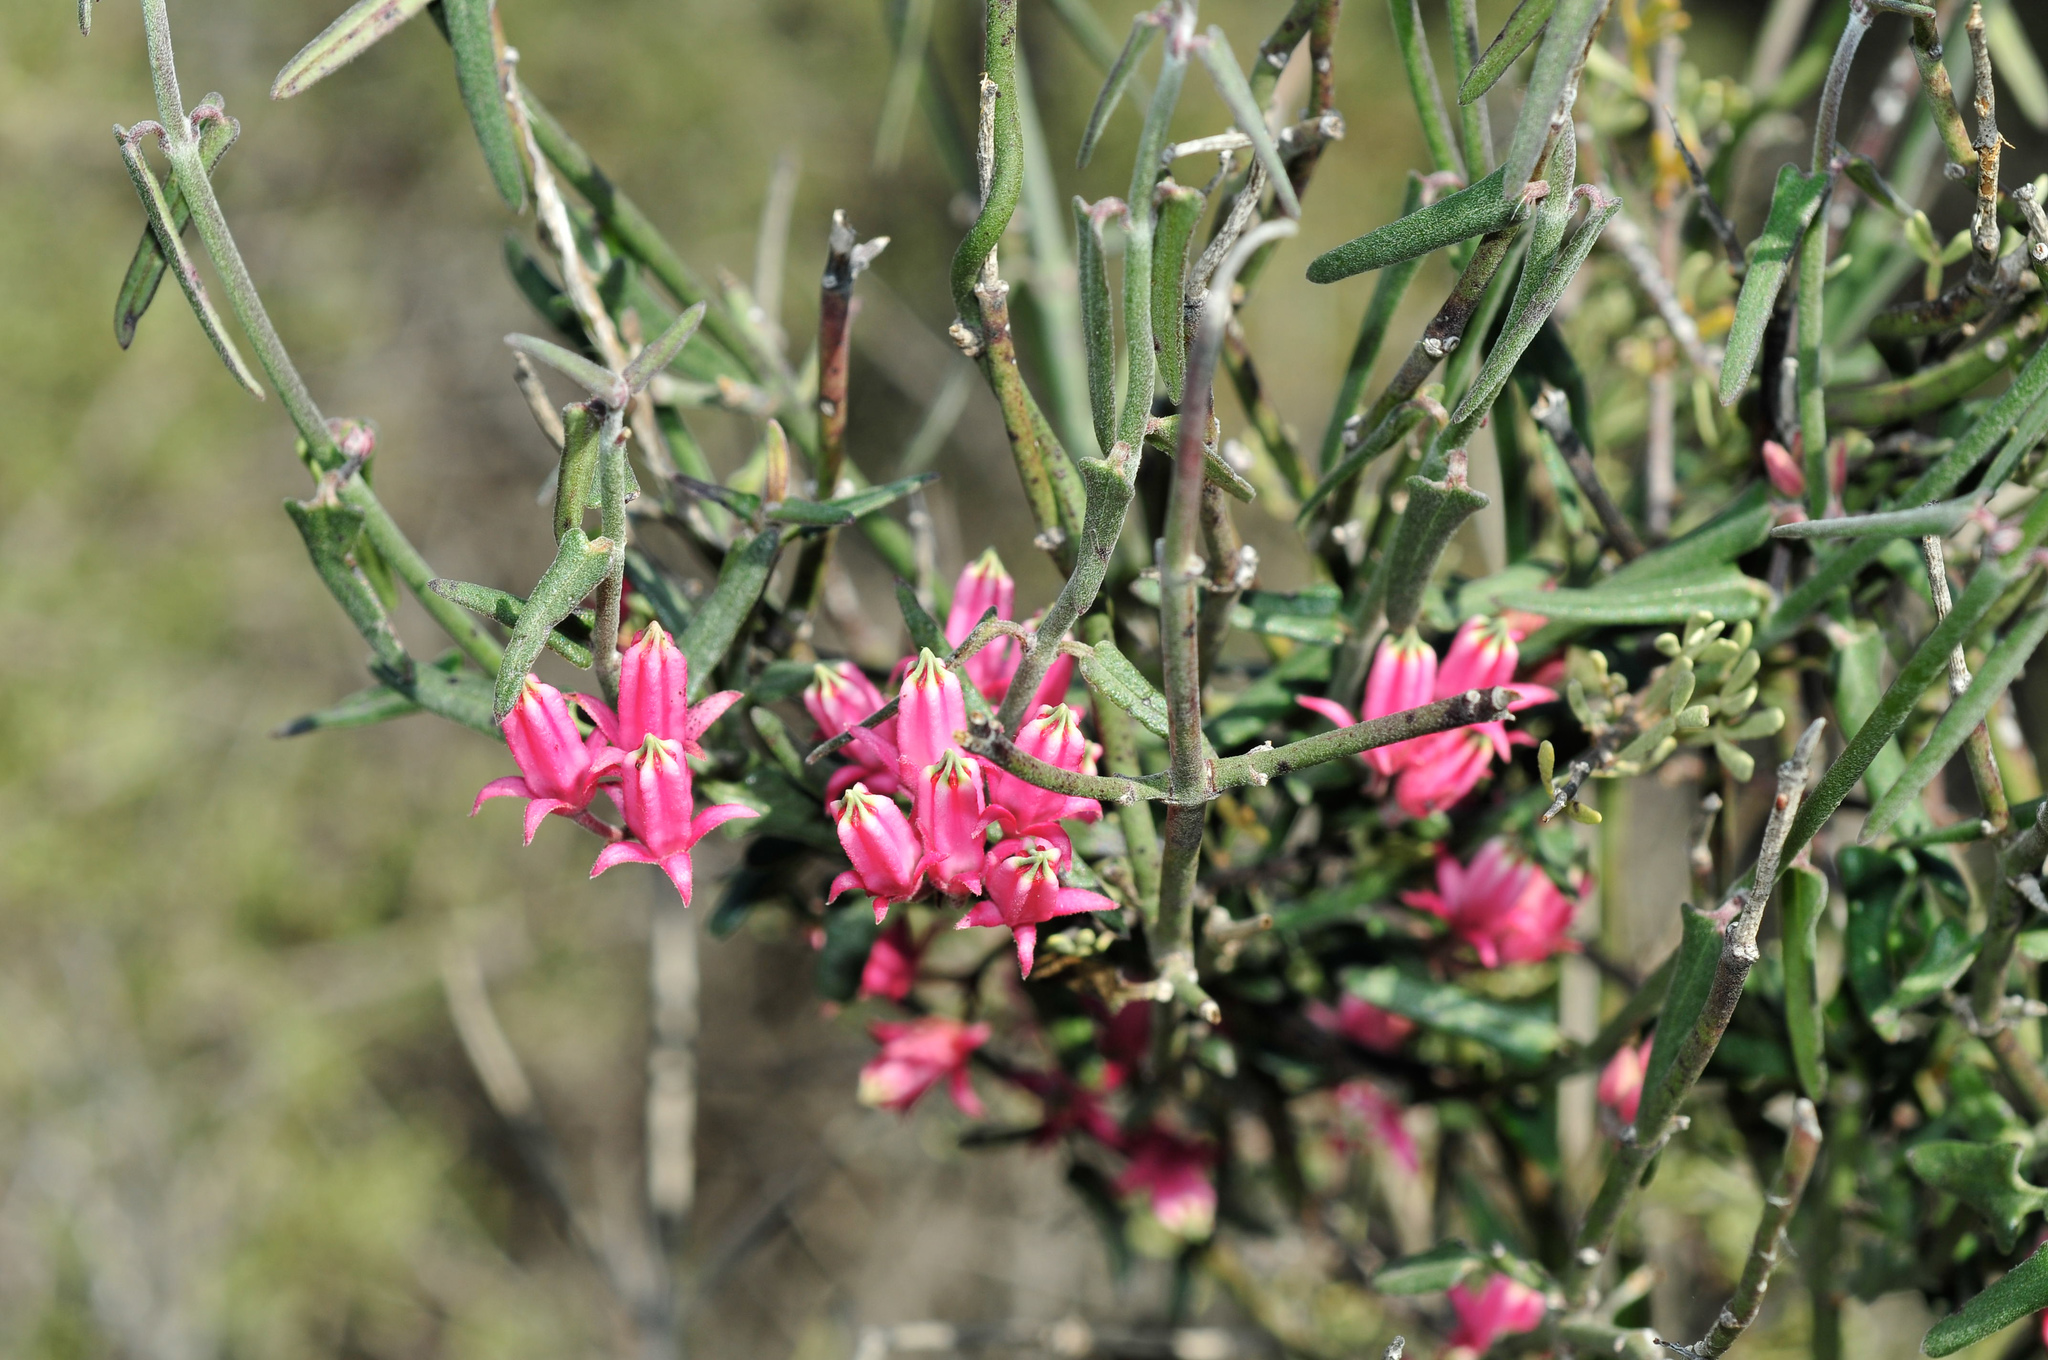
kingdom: Plantae
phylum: Tracheophyta
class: Magnoliopsida
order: Gentianales
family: Apocynaceae
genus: Microloma
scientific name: Microloma sagittatum
